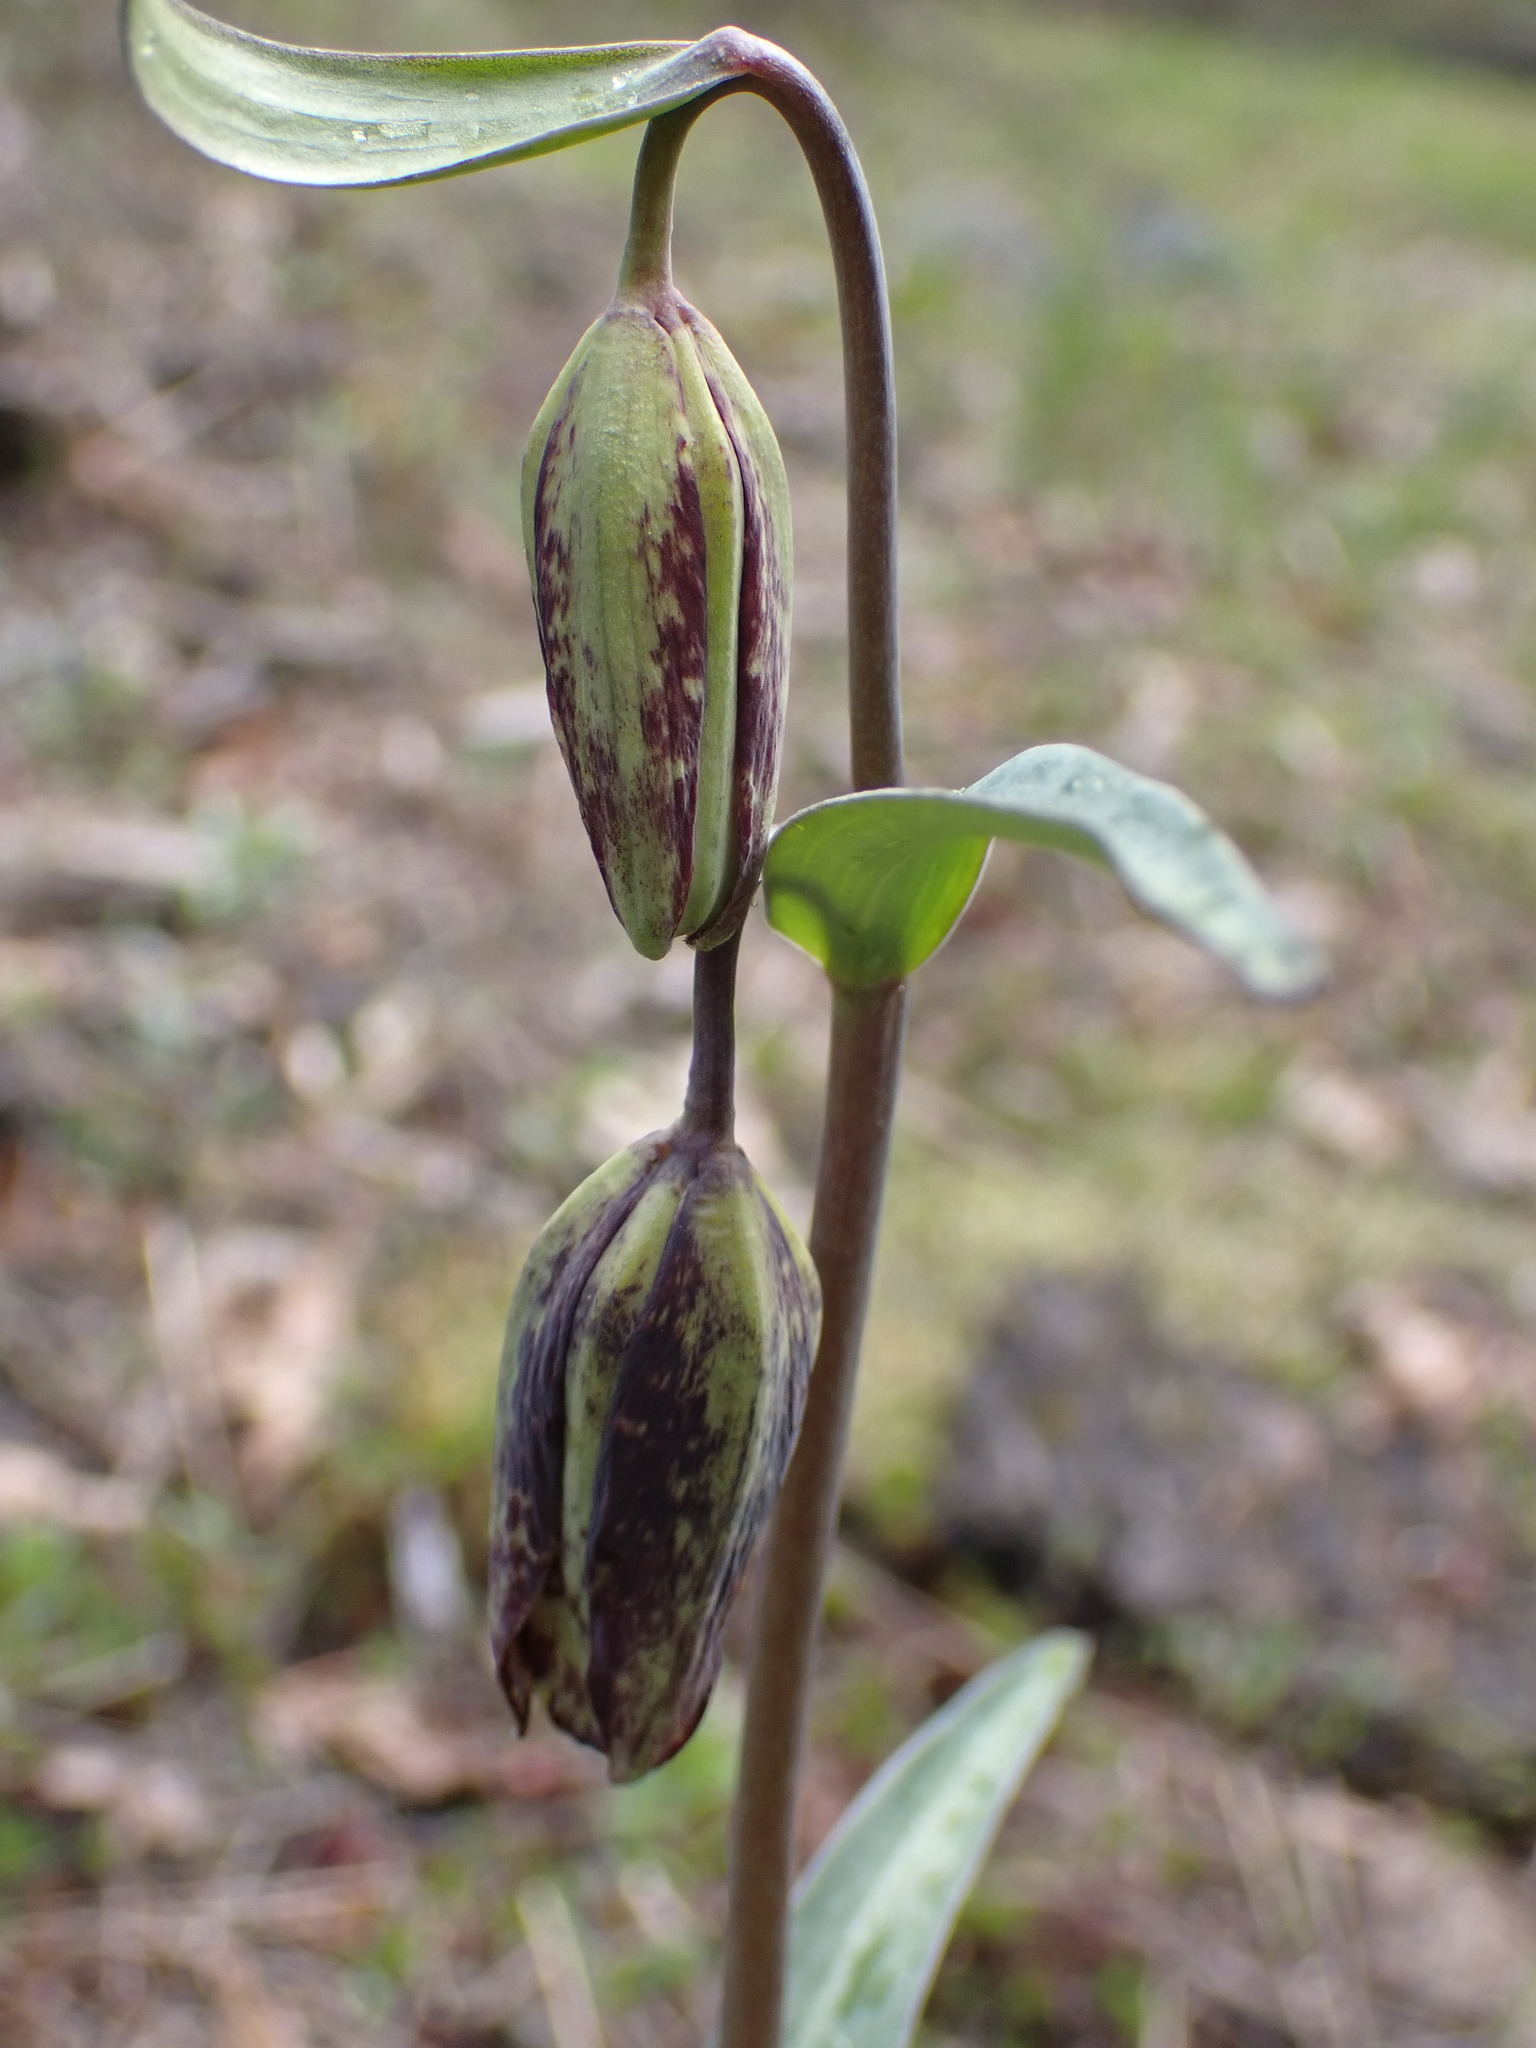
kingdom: Plantae
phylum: Tracheophyta
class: Liliopsida
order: Liliales
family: Liliaceae
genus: Fritillaria
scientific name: Fritillaria affinis
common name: Ojai fritillary
